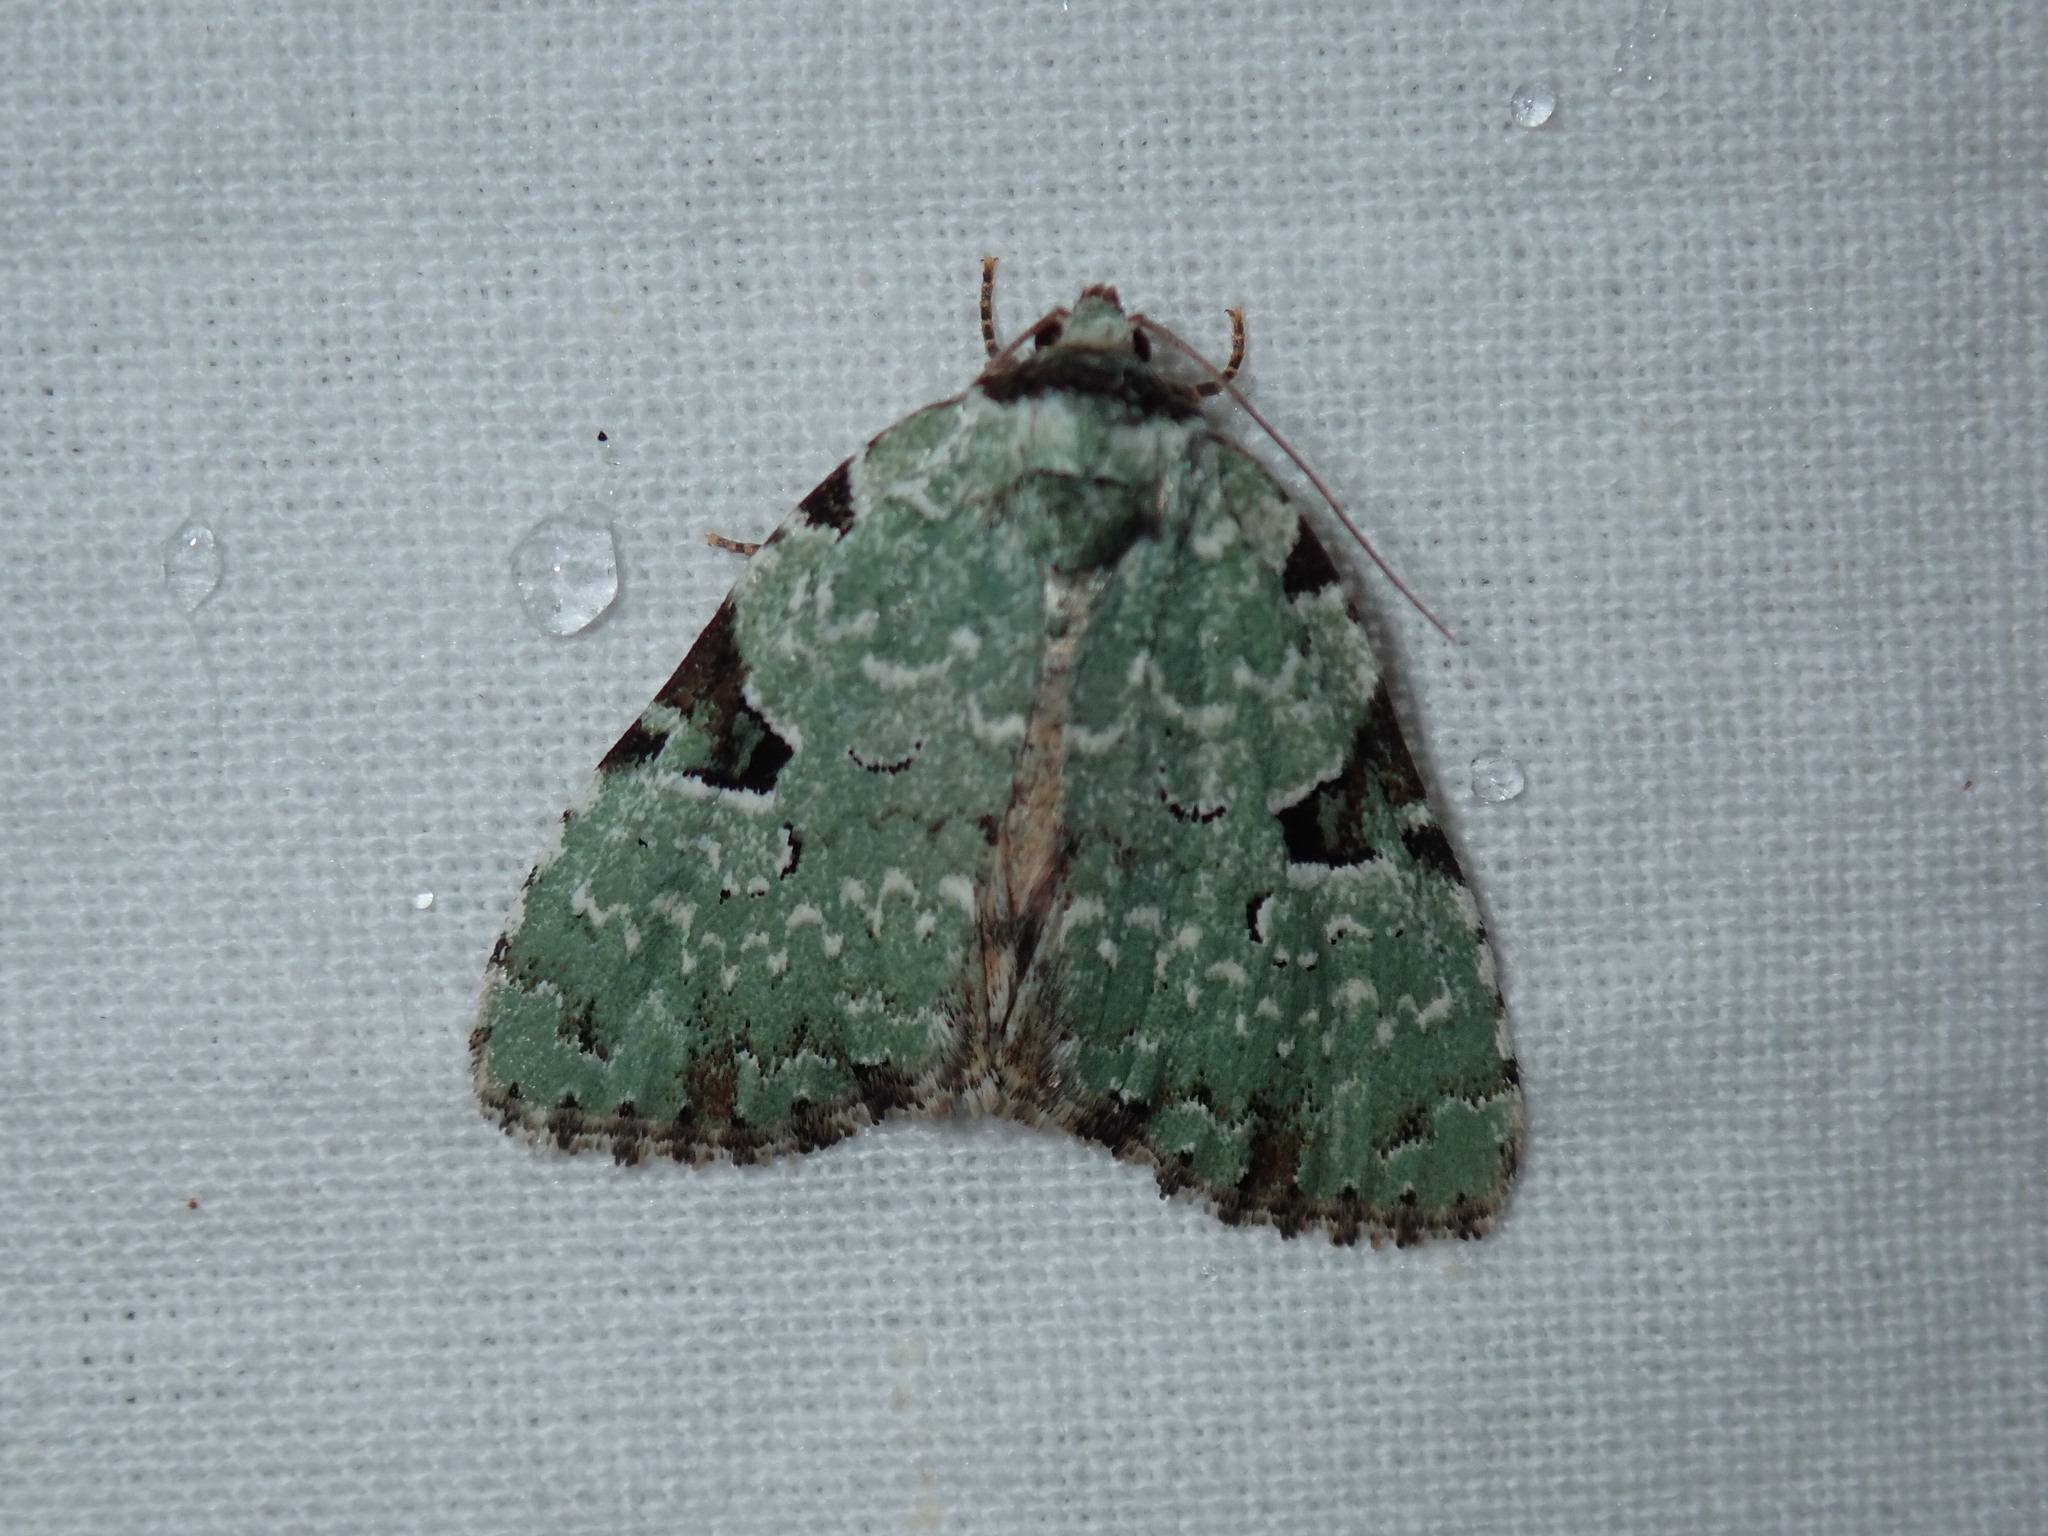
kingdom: Animalia
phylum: Arthropoda
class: Insecta
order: Lepidoptera
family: Noctuidae
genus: Leuconycta
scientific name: Leuconycta diphteroides
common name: Green leuconycta moth
